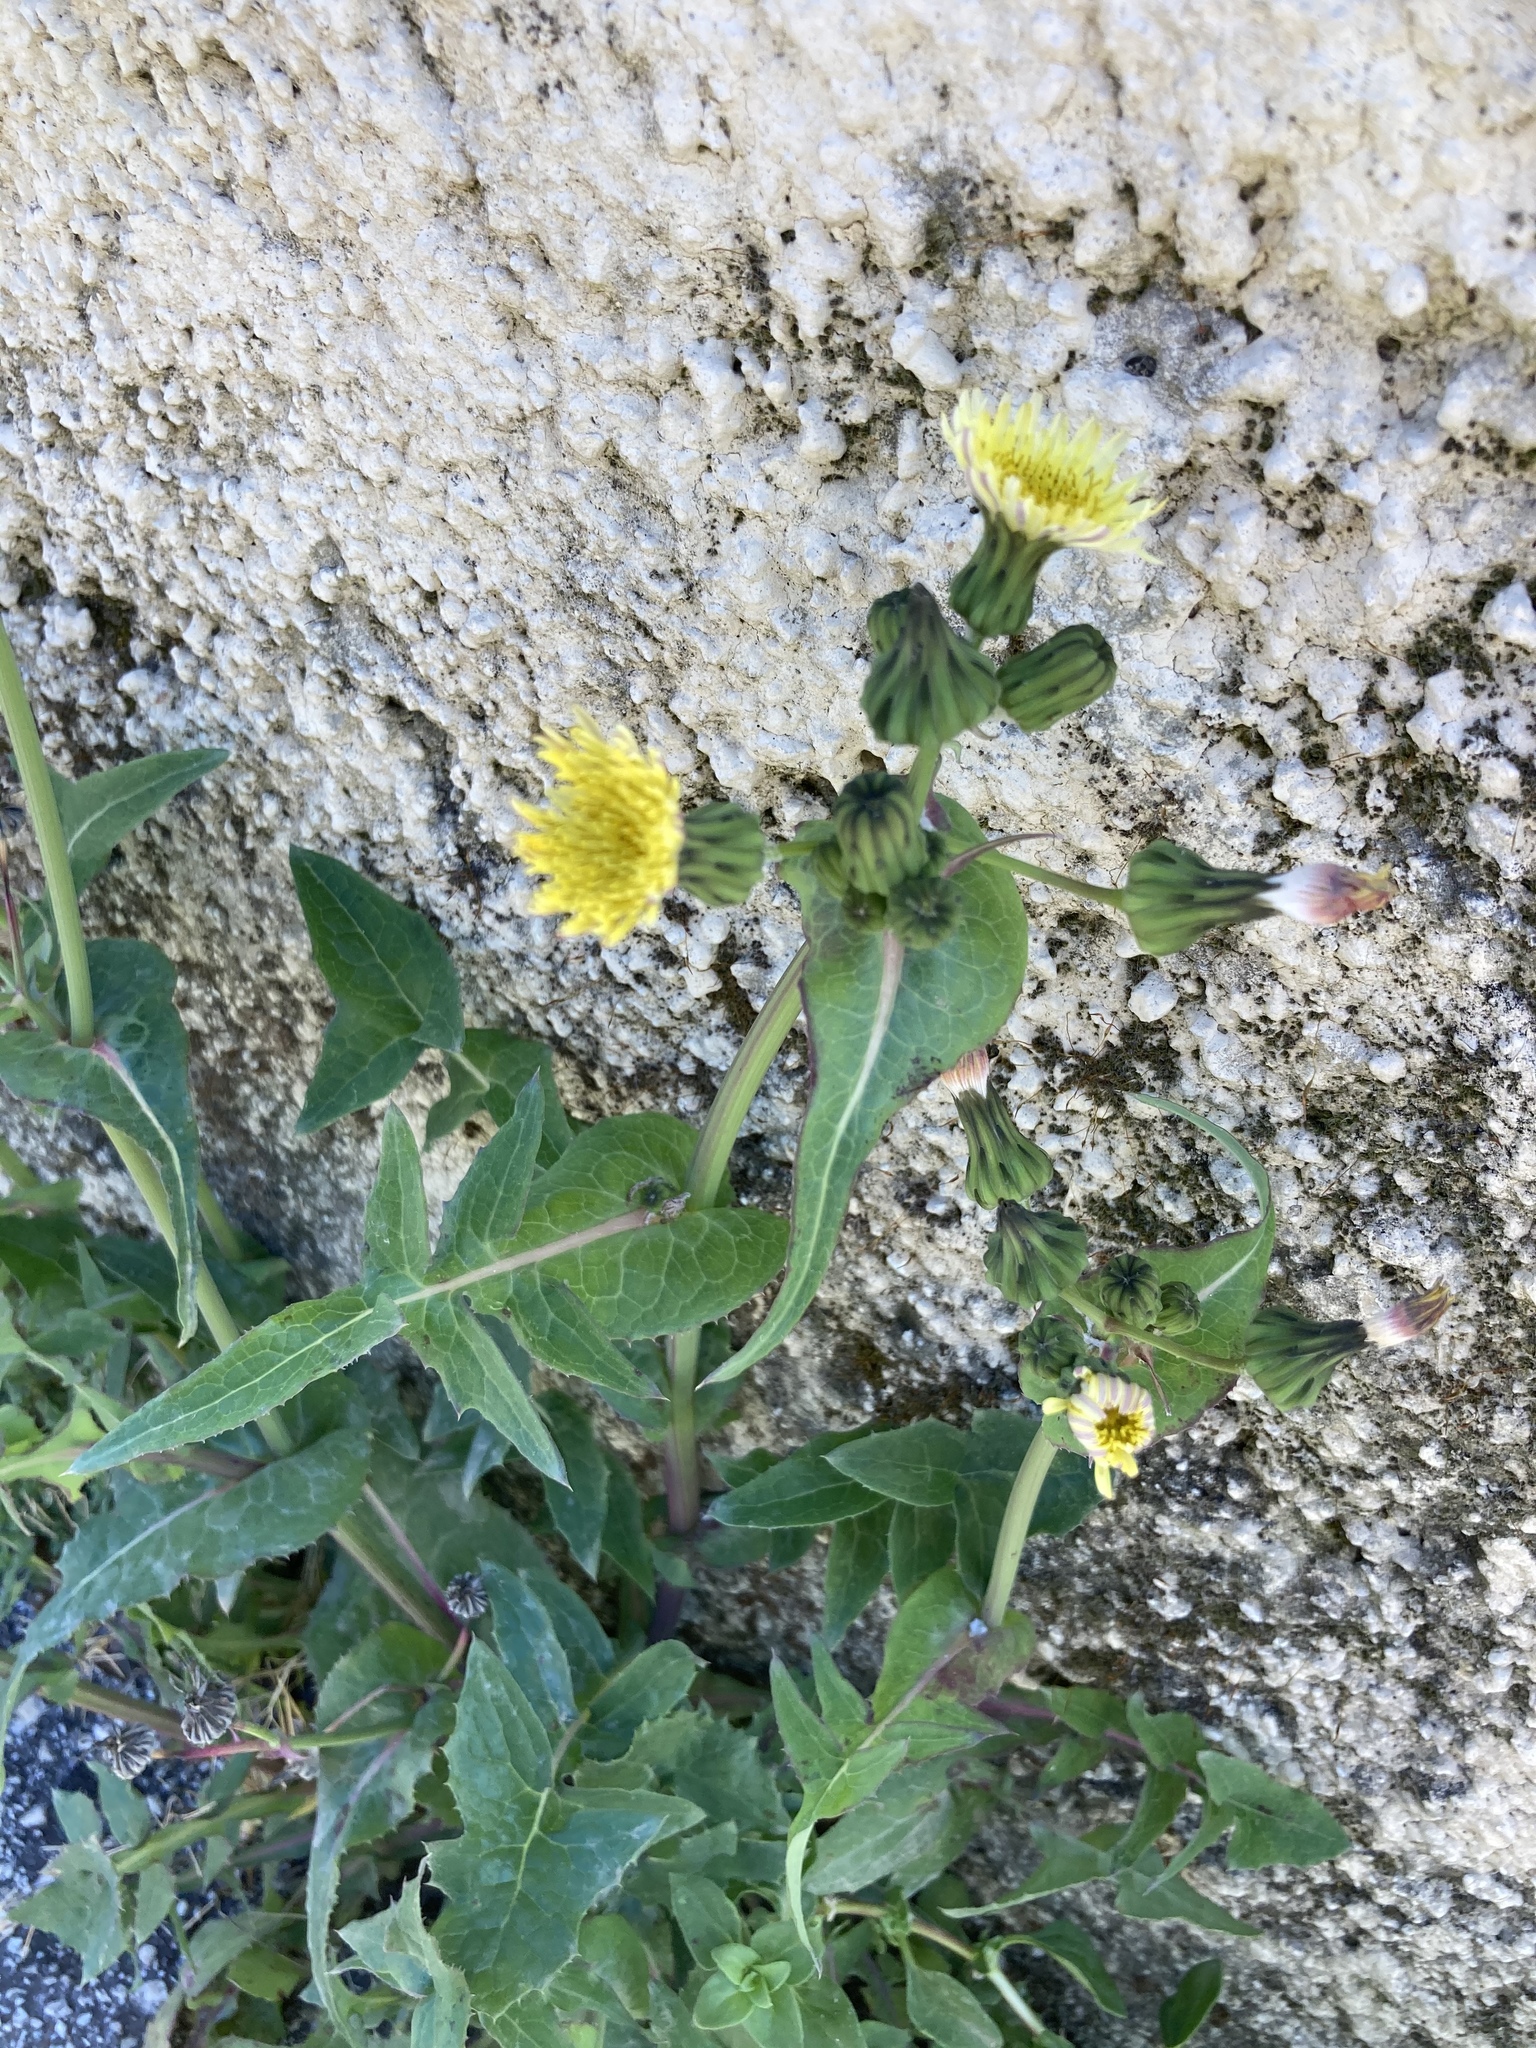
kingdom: Plantae
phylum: Tracheophyta
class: Magnoliopsida
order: Asterales
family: Asteraceae
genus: Sonchus
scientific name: Sonchus oleraceus
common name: Common sowthistle
